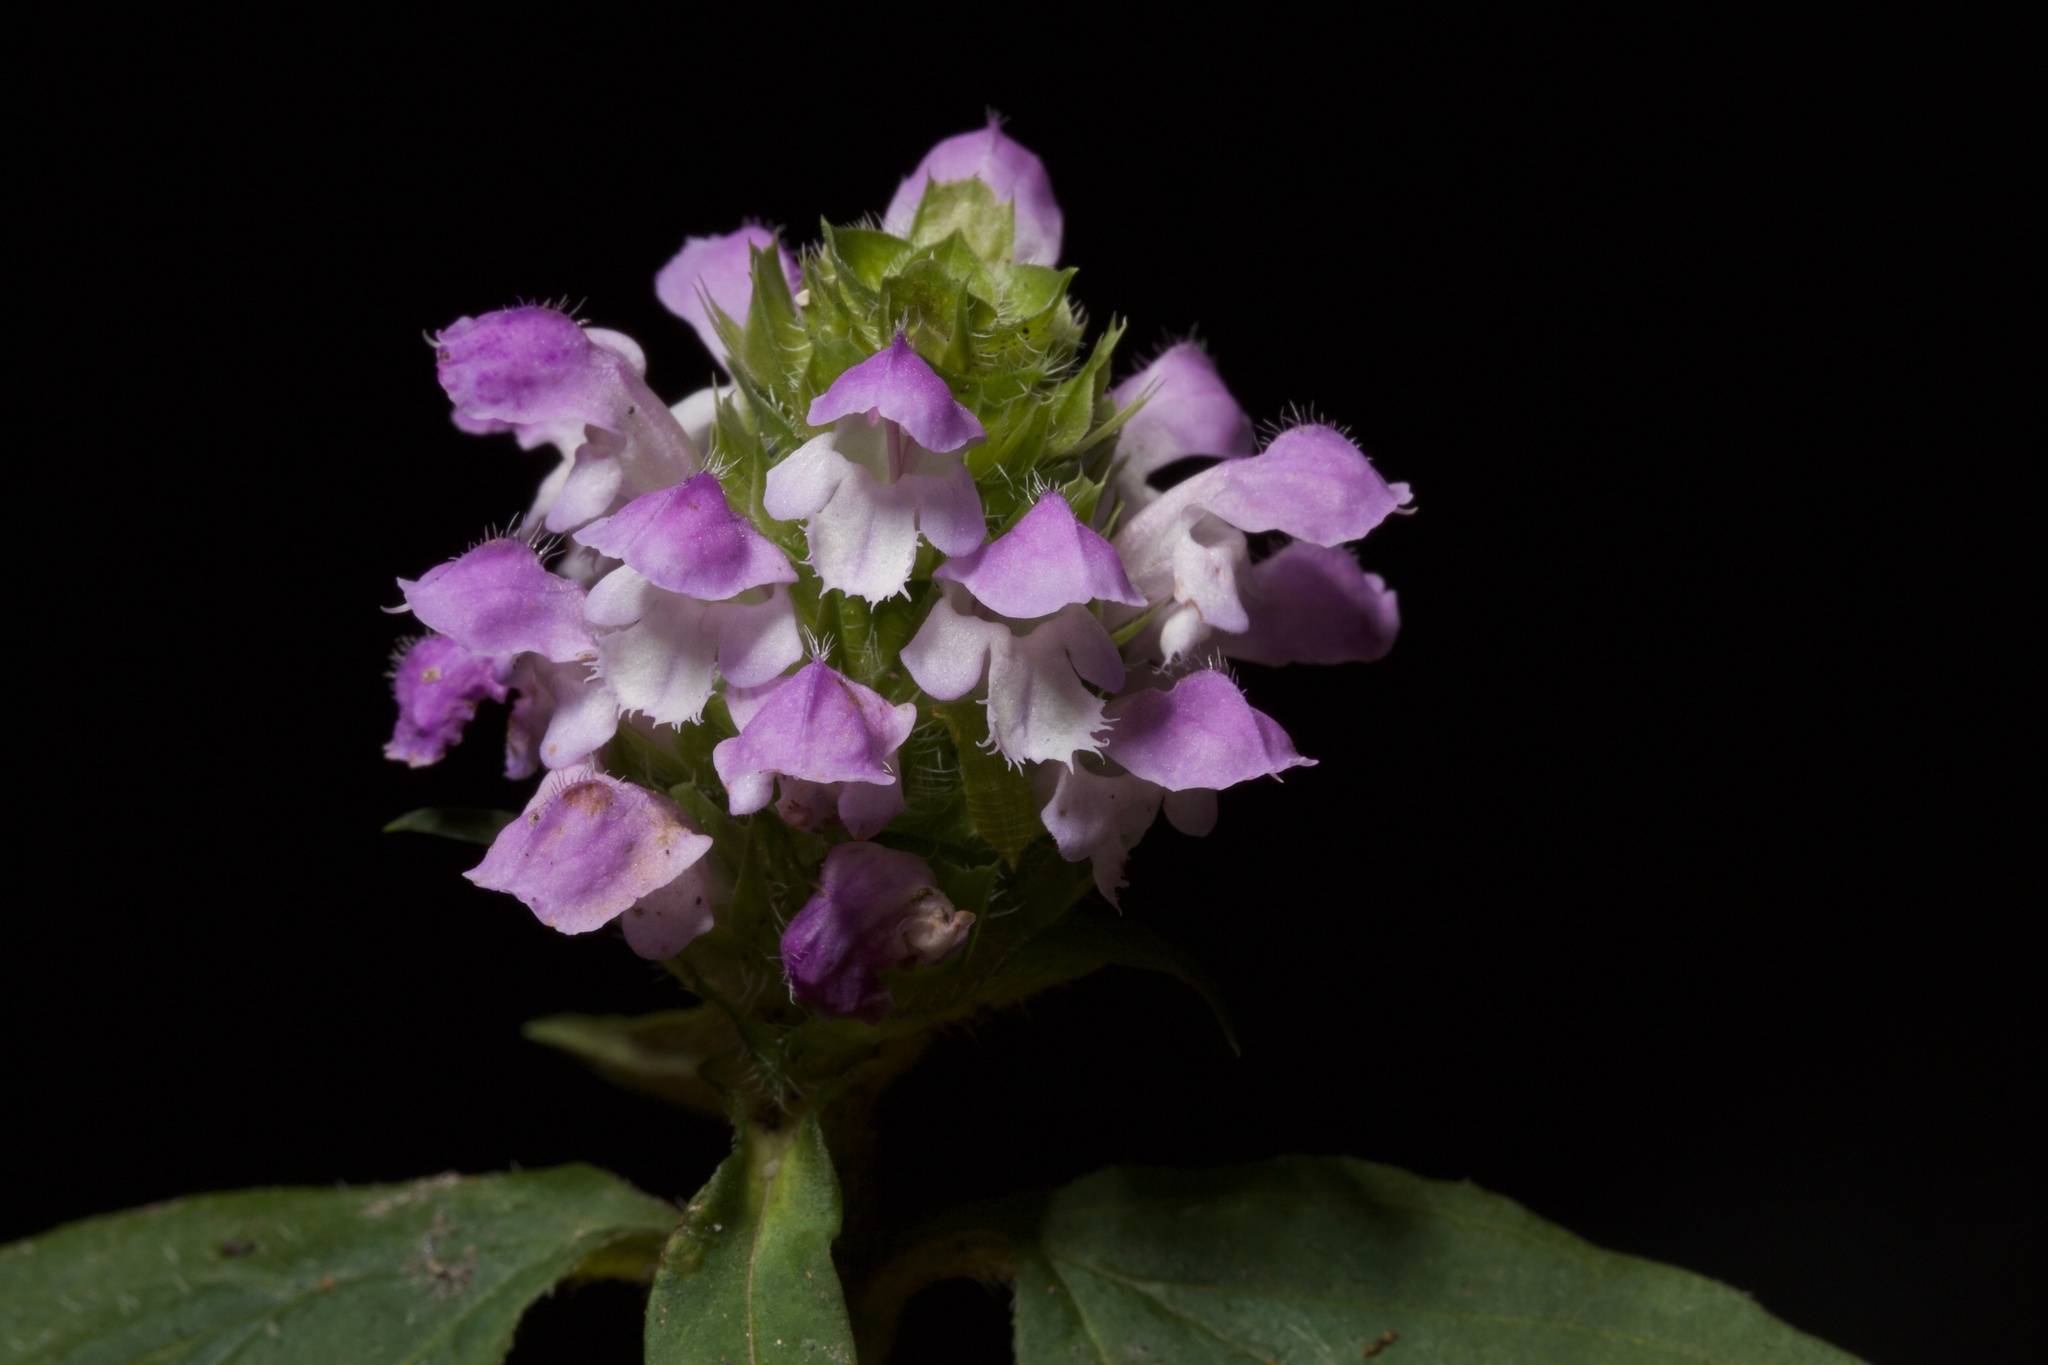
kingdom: Plantae
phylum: Tracheophyta
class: Magnoliopsida
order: Lamiales
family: Lamiaceae
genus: Prunella
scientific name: Prunella vulgaris
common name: Heal-all
